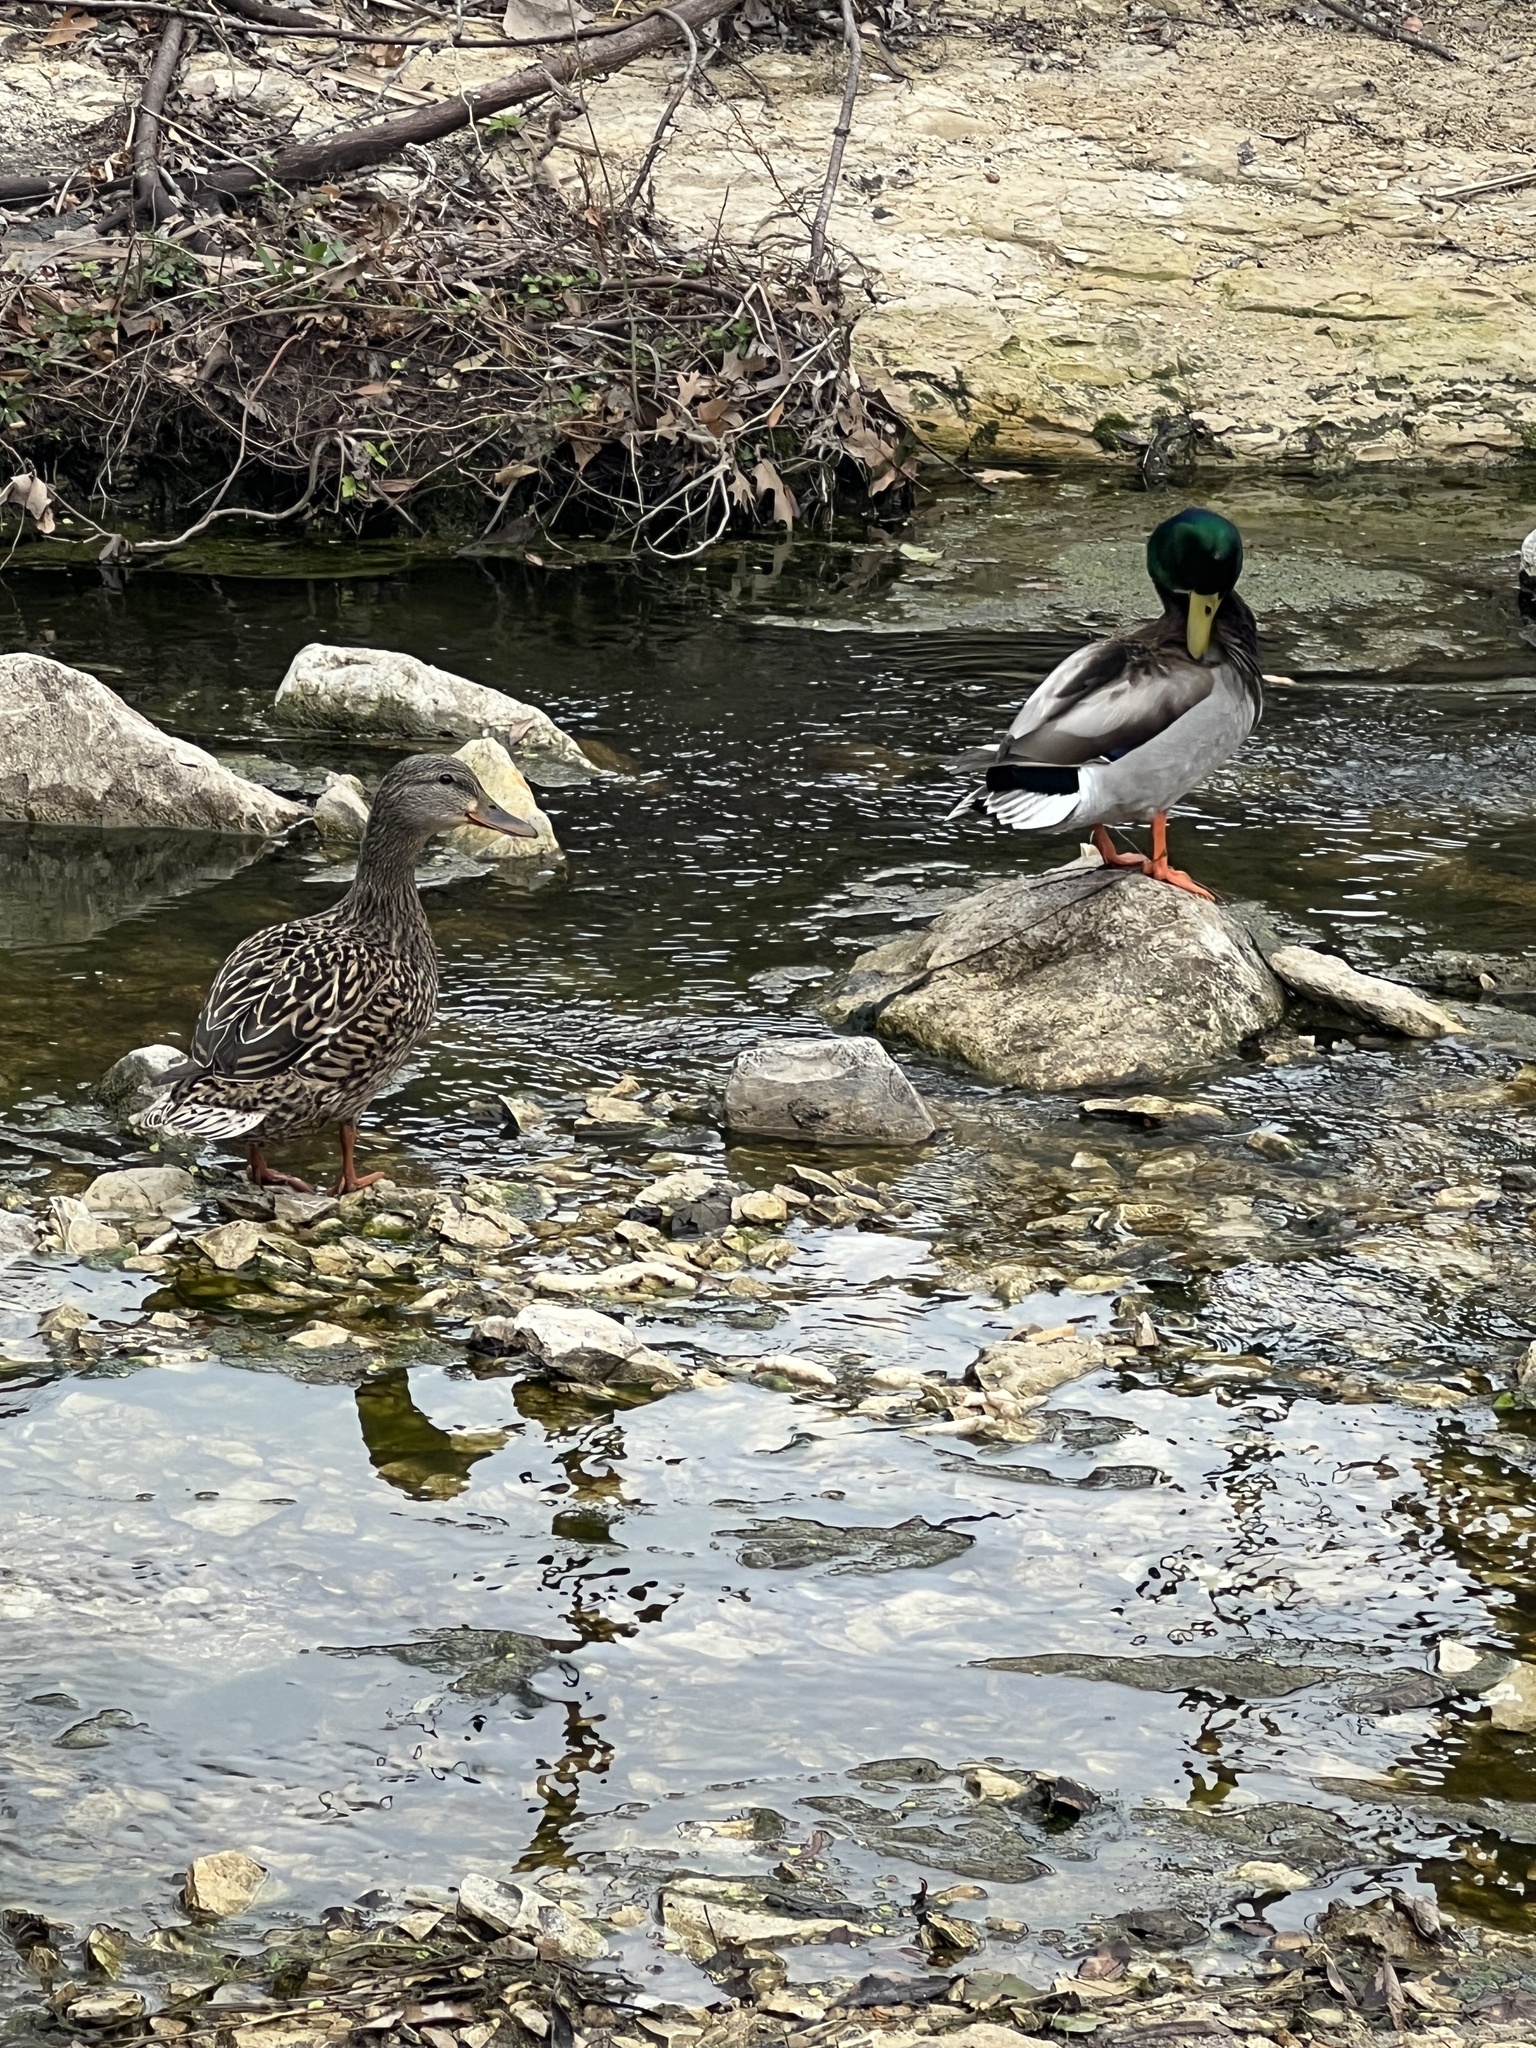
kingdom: Animalia
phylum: Chordata
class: Aves
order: Anseriformes
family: Anatidae
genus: Anas
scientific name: Anas platyrhynchos
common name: Mallard
